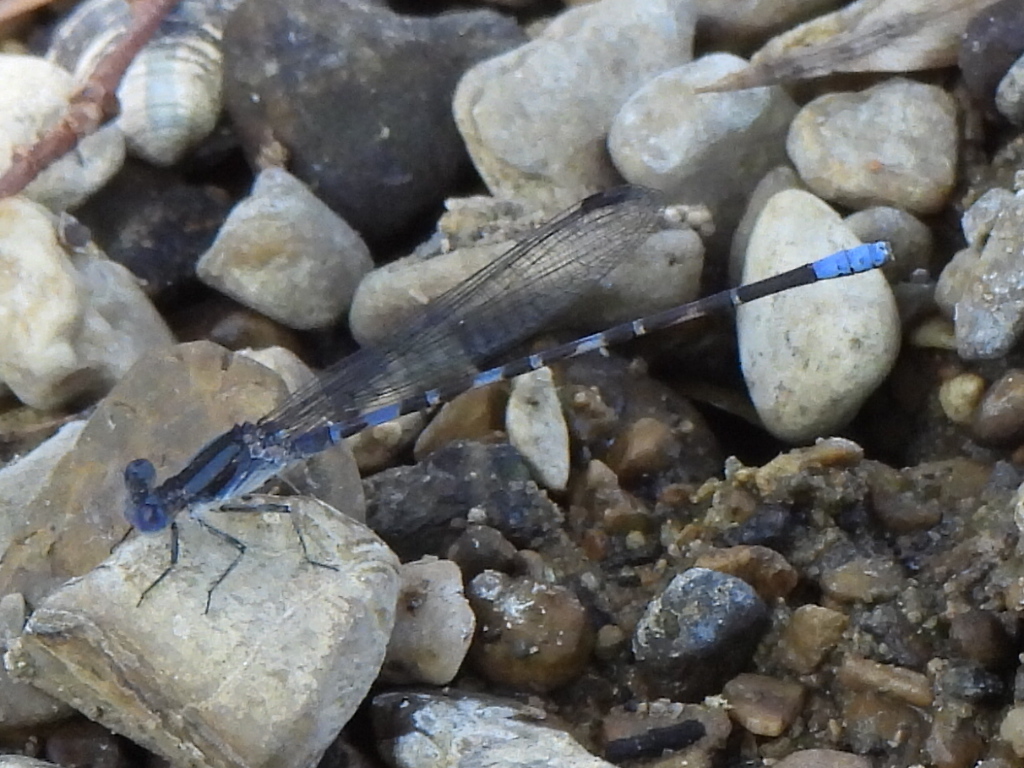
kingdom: Animalia
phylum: Arthropoda
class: Insecta
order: Odonata
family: Coenagrionidae
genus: Argia
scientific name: Argia immunda
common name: Kiowa dancer
